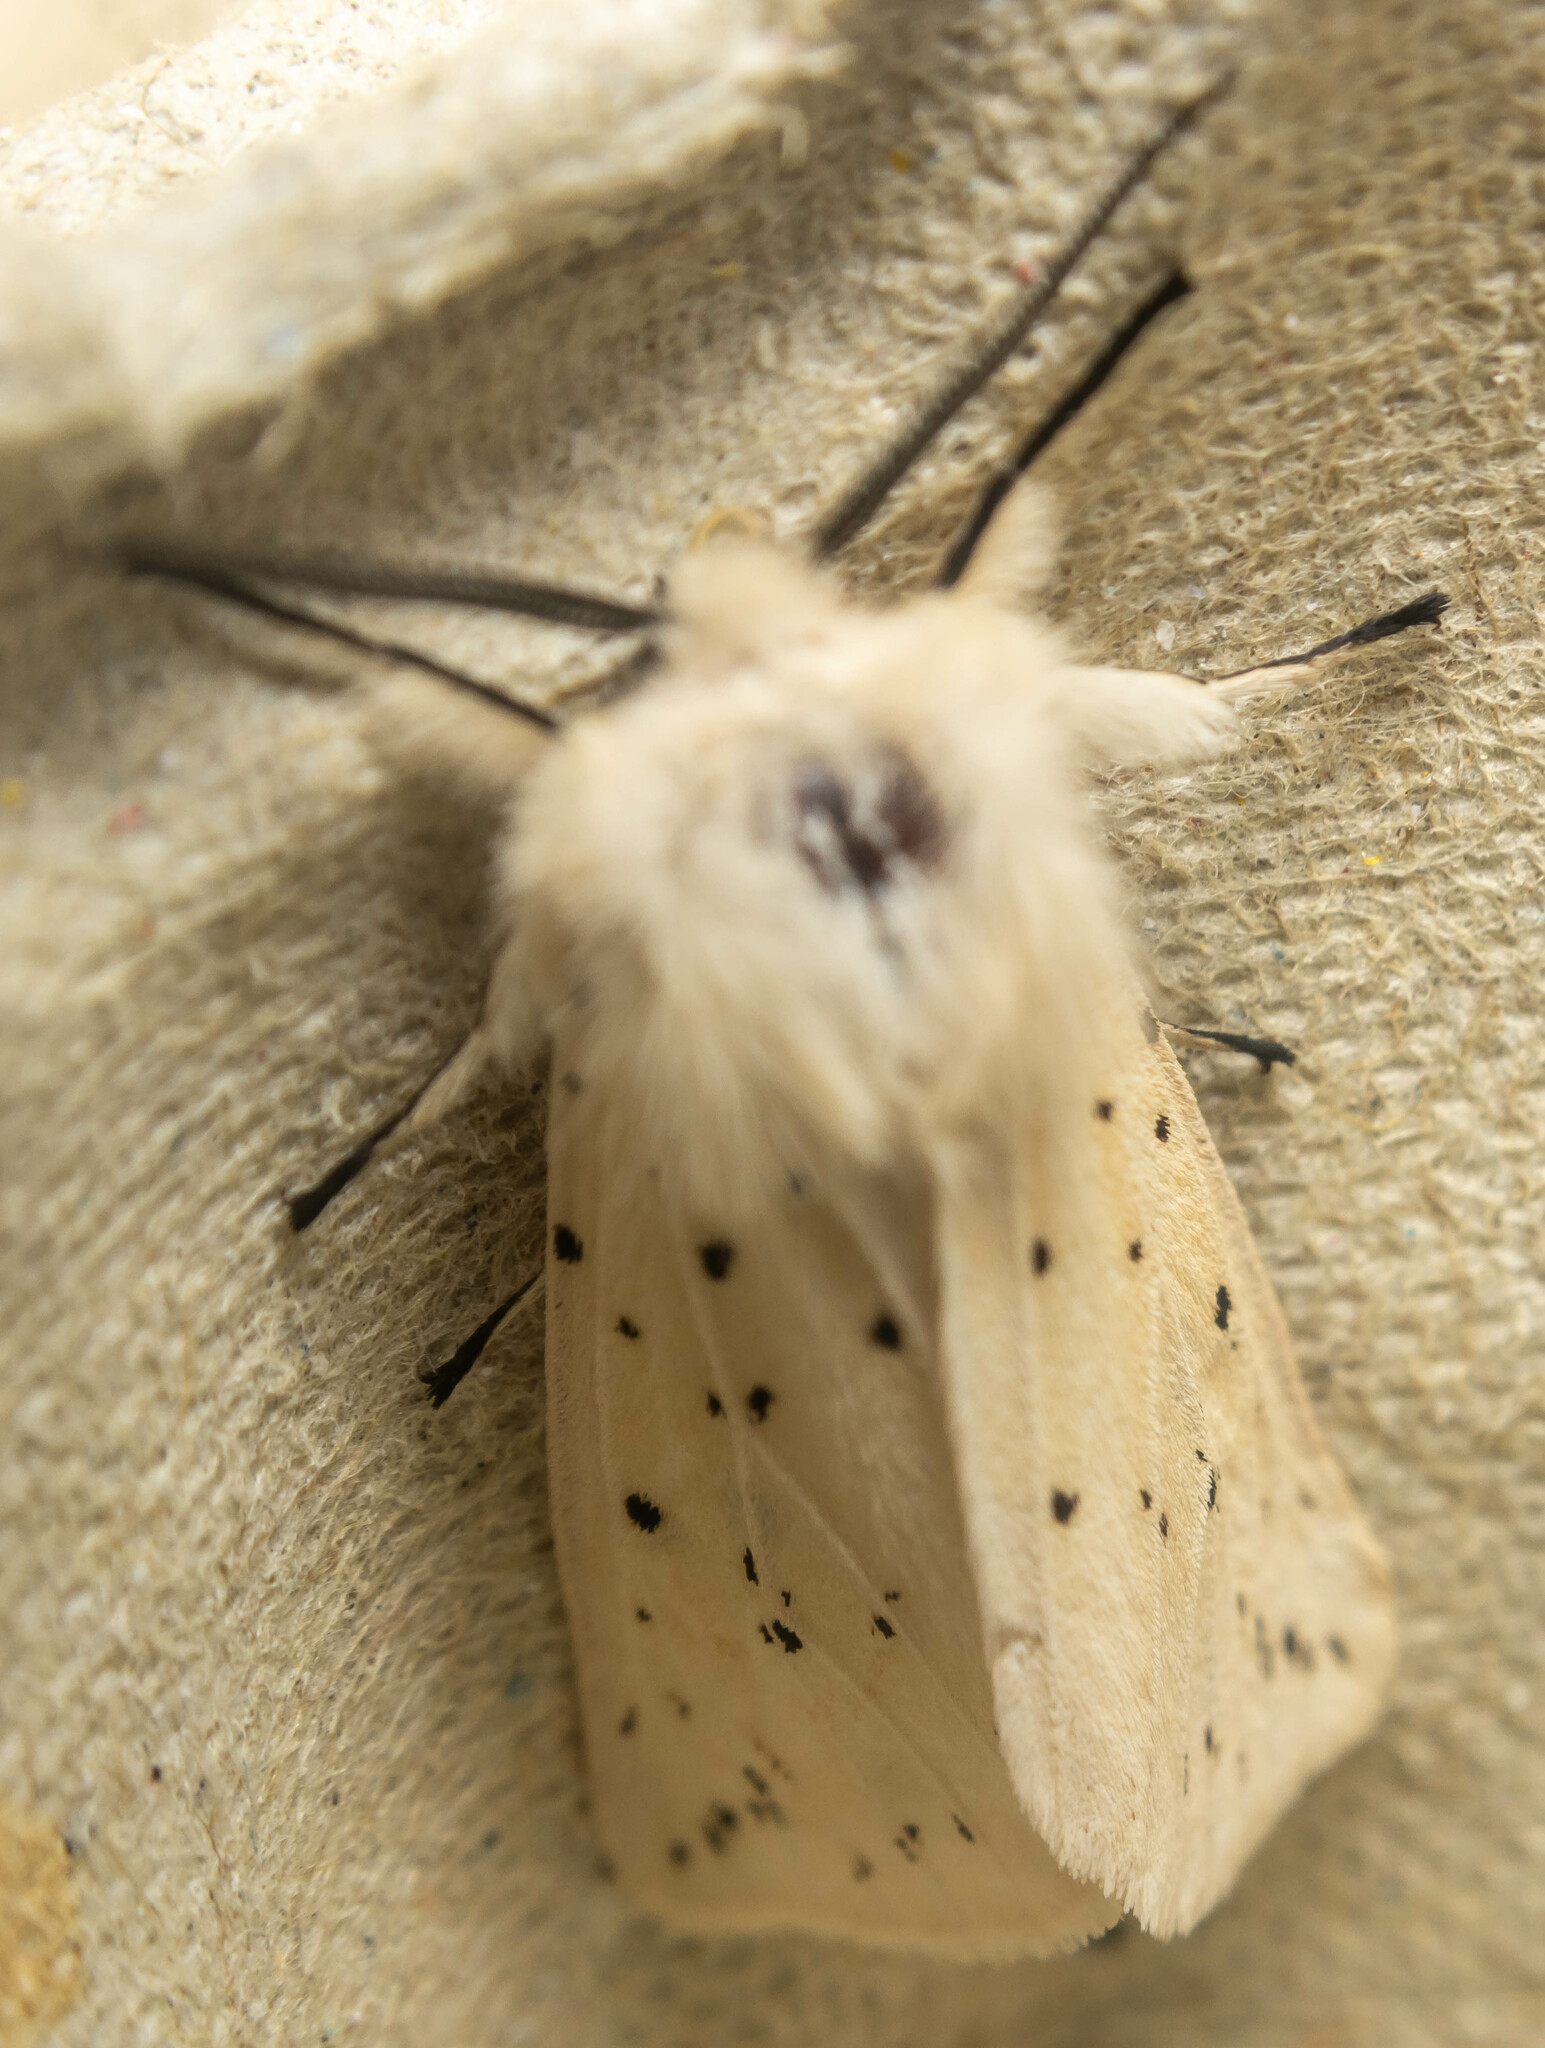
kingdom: Animalia
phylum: Arthropoda
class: Insecta
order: Lepidoptera
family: Erebidae
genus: Spilosoma
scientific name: Spilosoma lubricipeda
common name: White ermine
